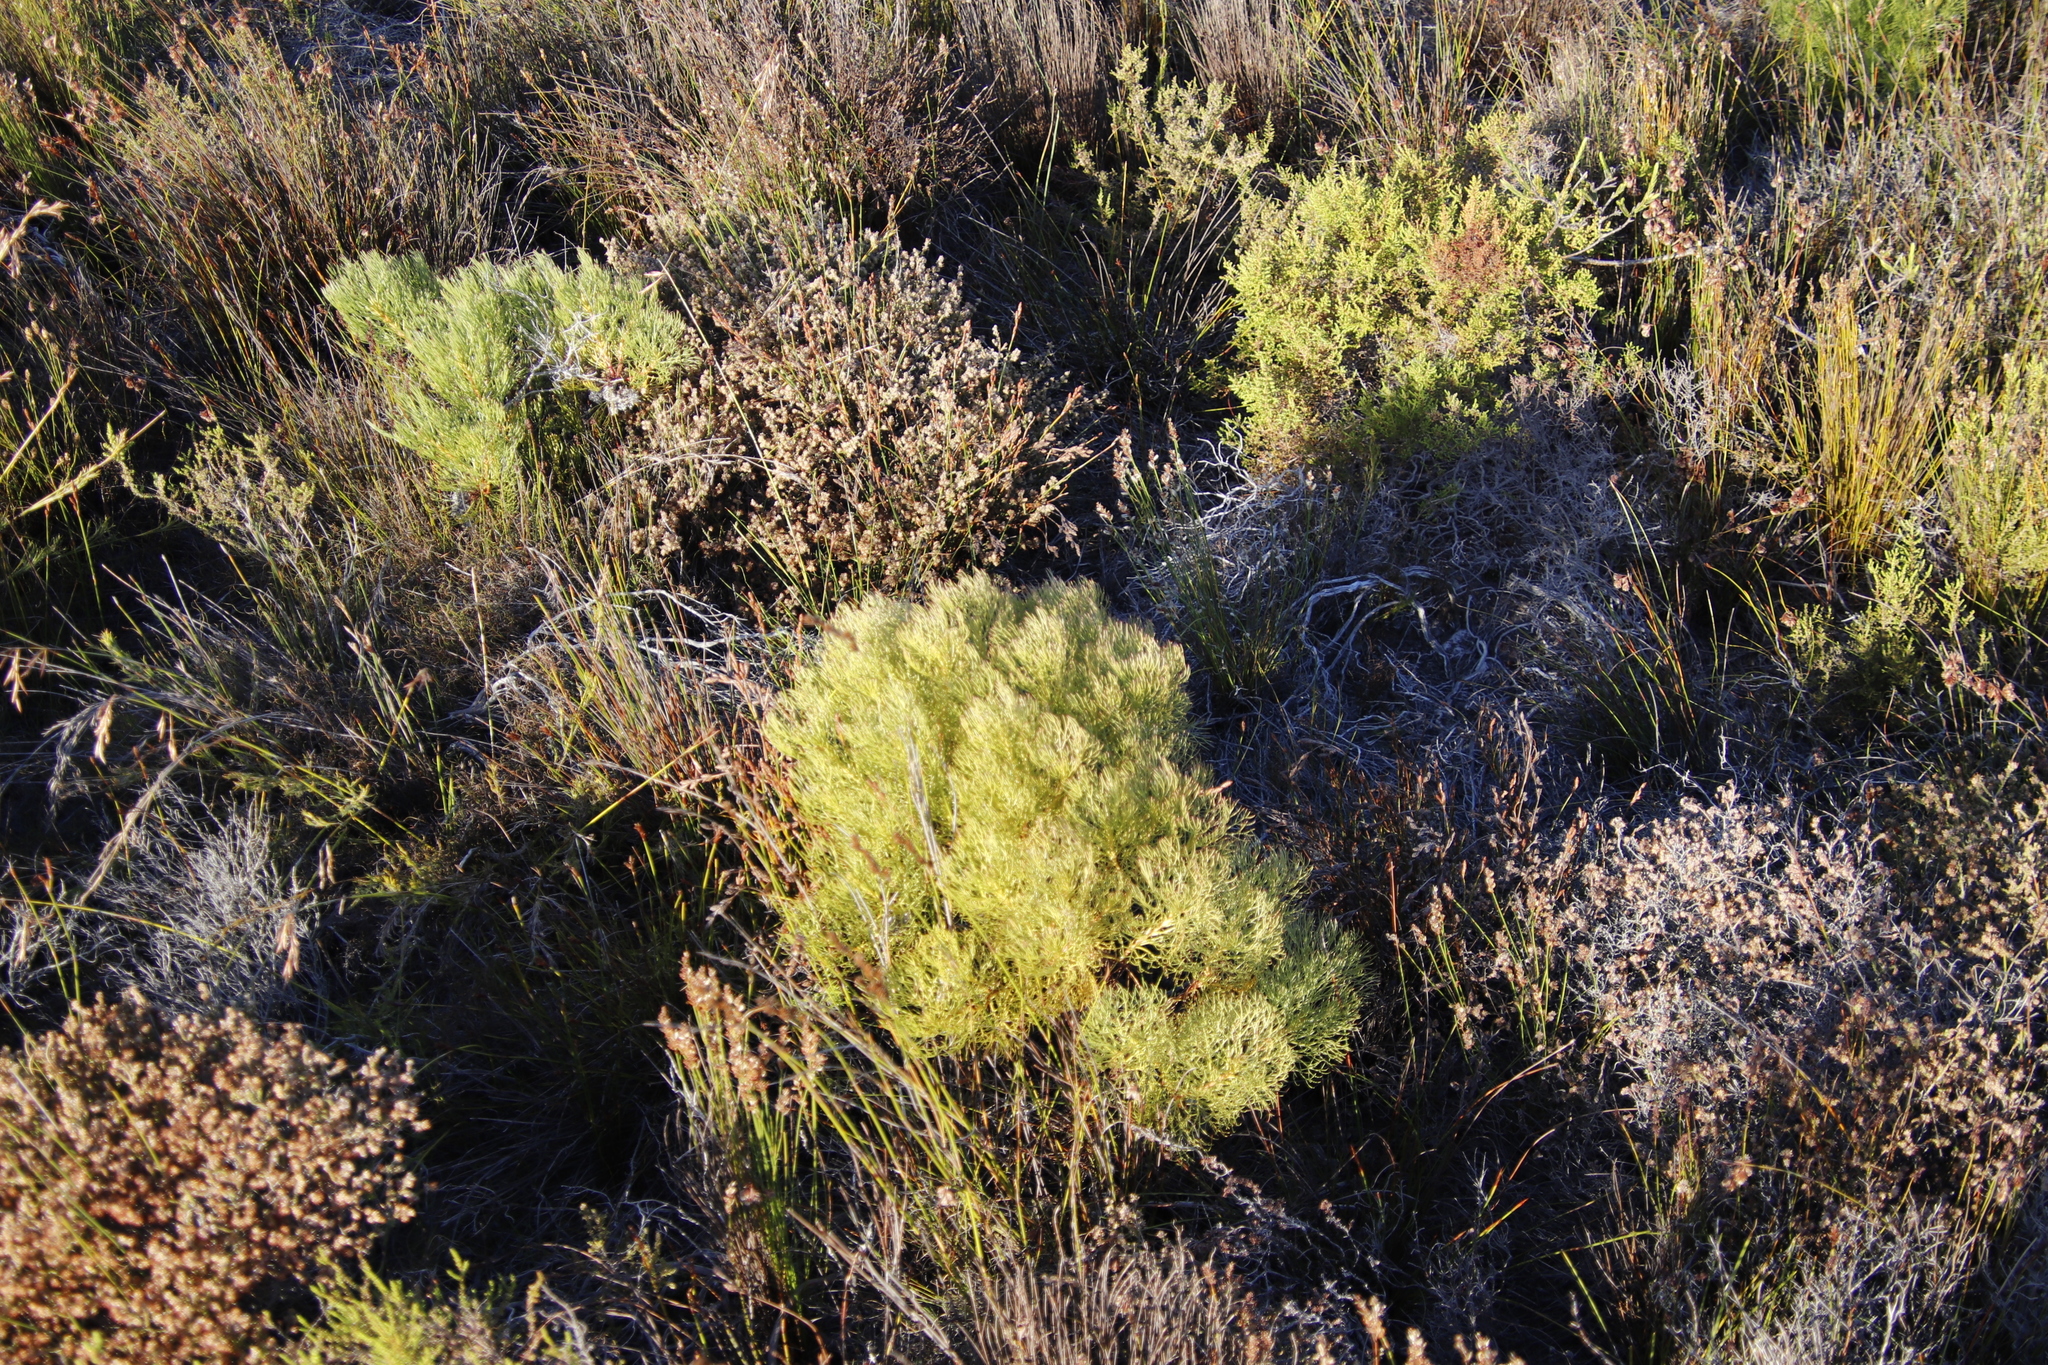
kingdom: Plantae
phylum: Tracheophyta
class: Magnoliopsida
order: Proteales
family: Proteaceae
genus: Serruria
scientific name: Serruria glomerata
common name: Cluster spiderhead
